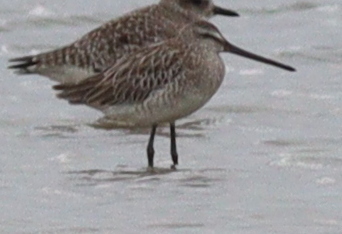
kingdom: Animalia
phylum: Chordata
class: Aves
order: Charadriiformes
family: Scolopacidae
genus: Limnodromus
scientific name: Limnodromus semipalmatus
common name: Asian dowitcher
